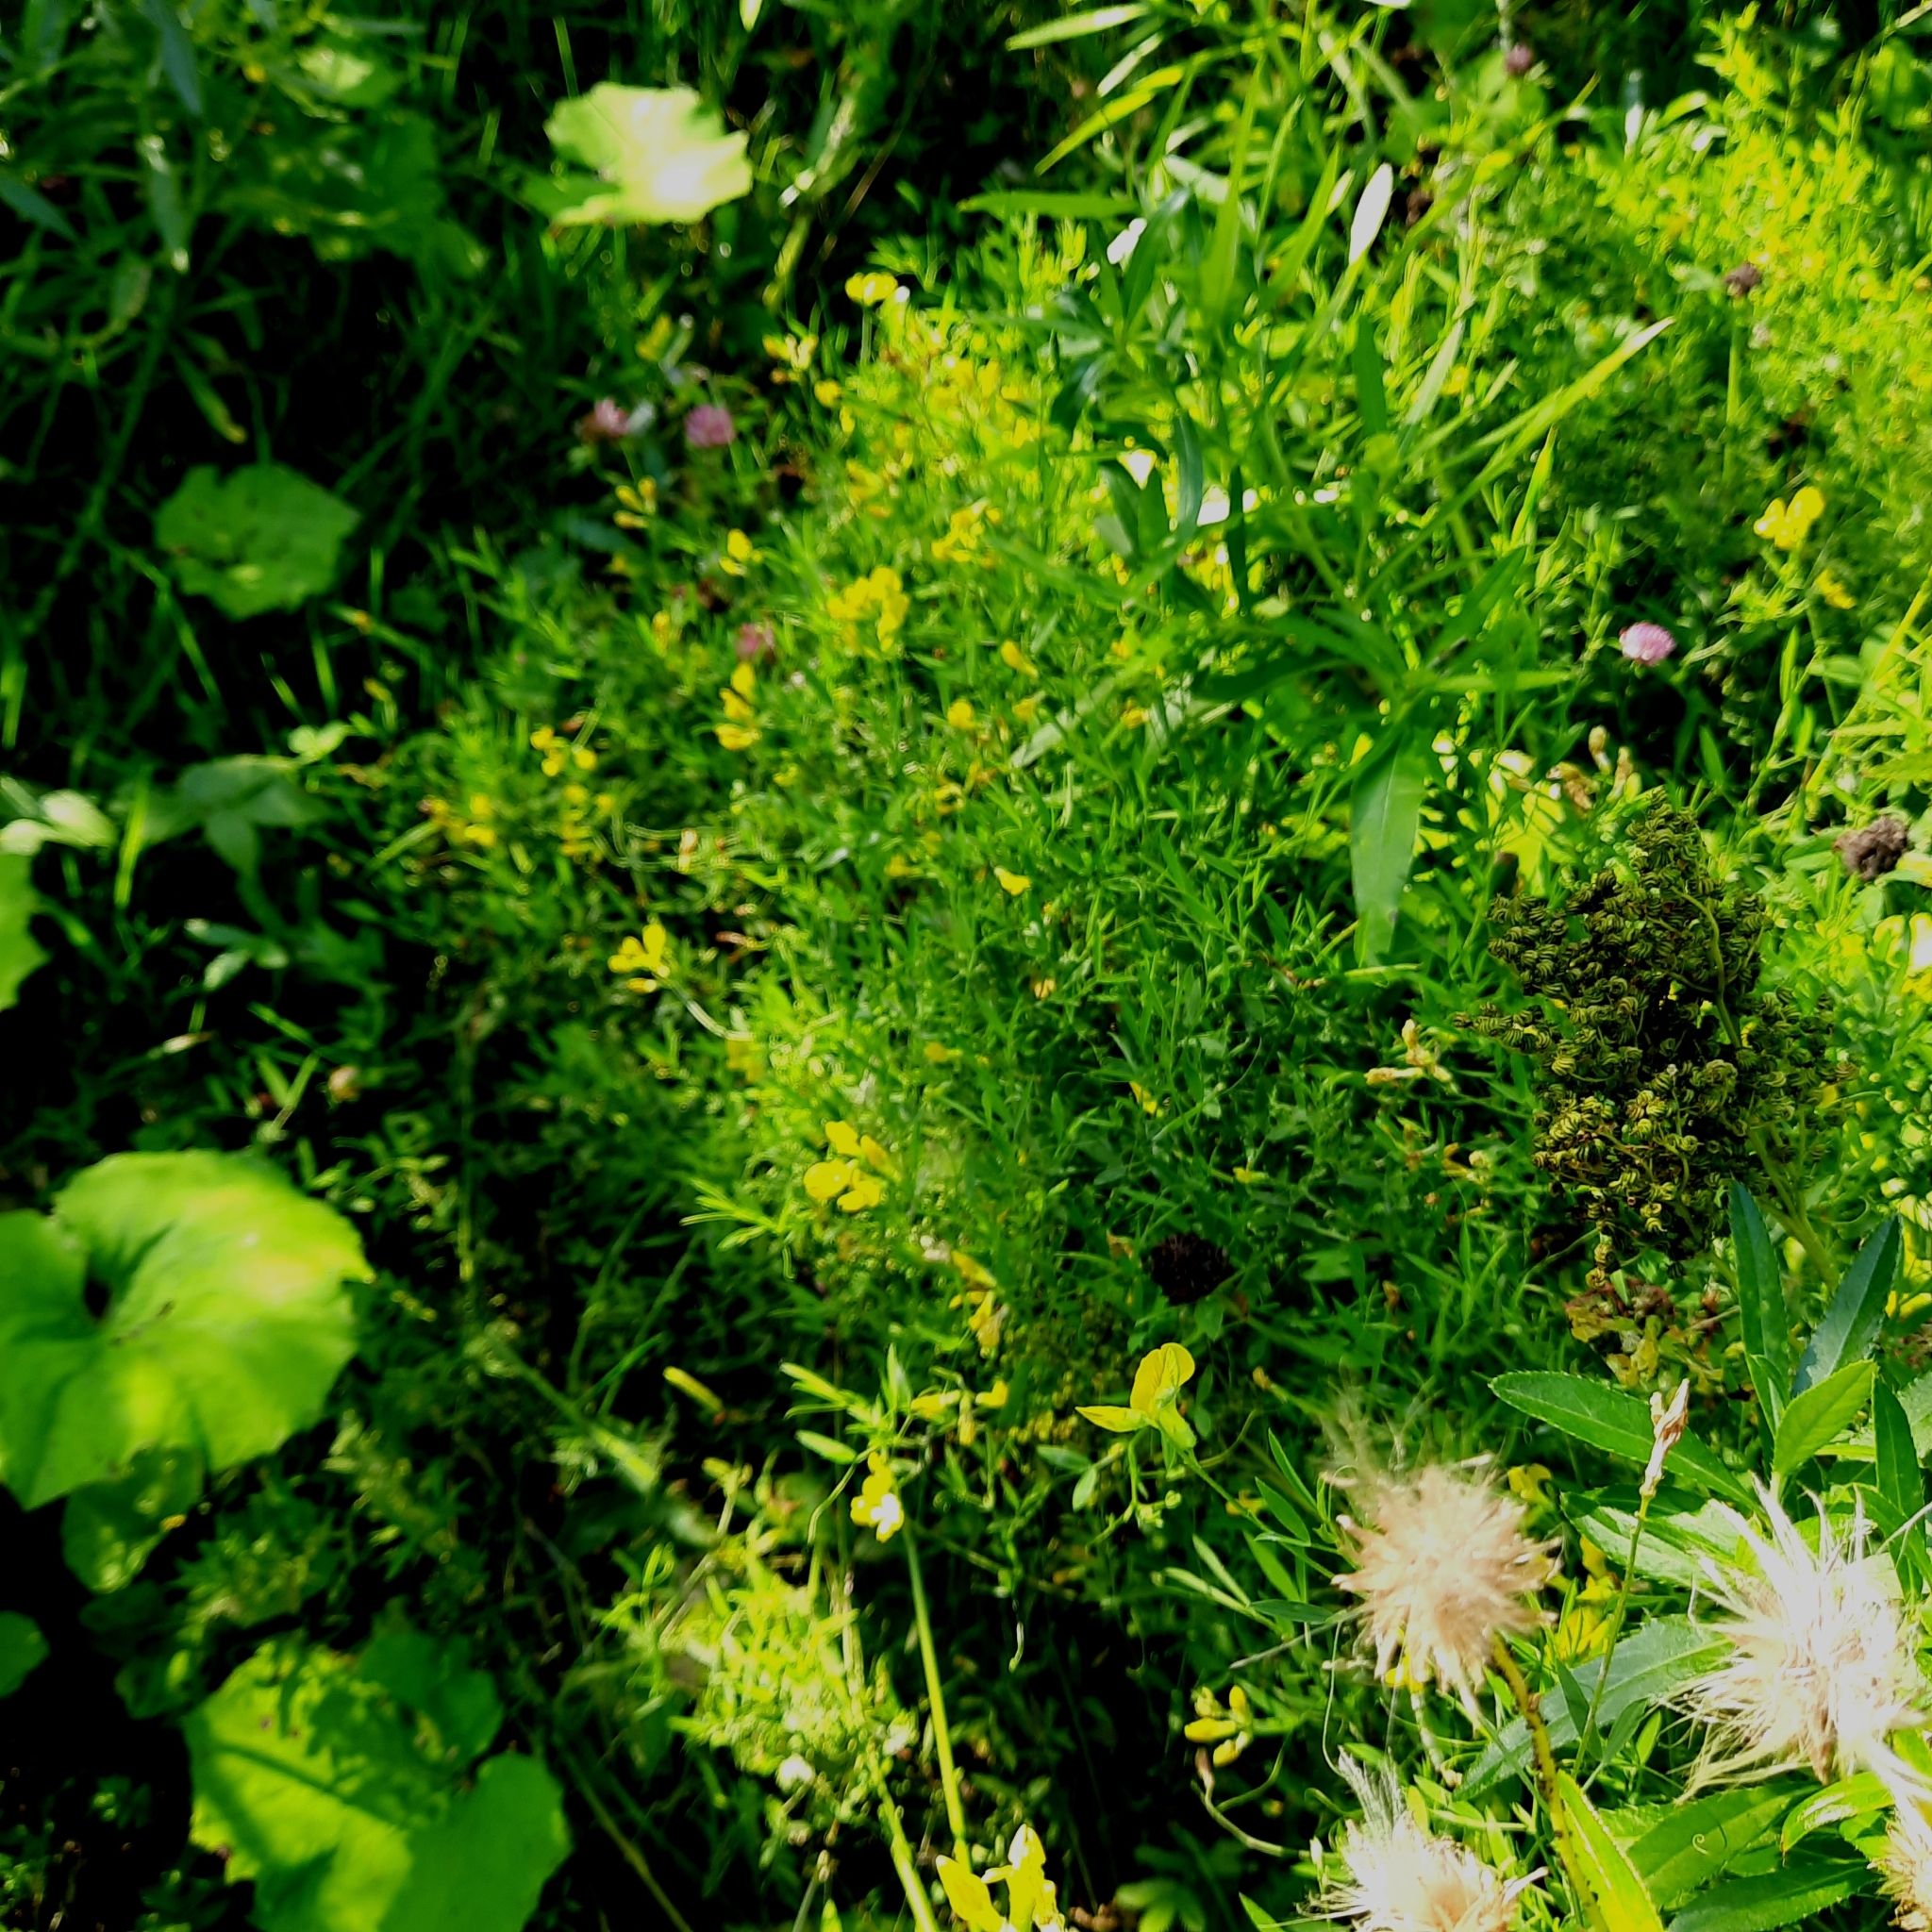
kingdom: Plantae
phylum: Tracheophyta
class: Magnoliopsida
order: Fabales
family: Fabaceae
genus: Lathyrus
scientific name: Lathyrus pratensis
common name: Meadow vetchling
